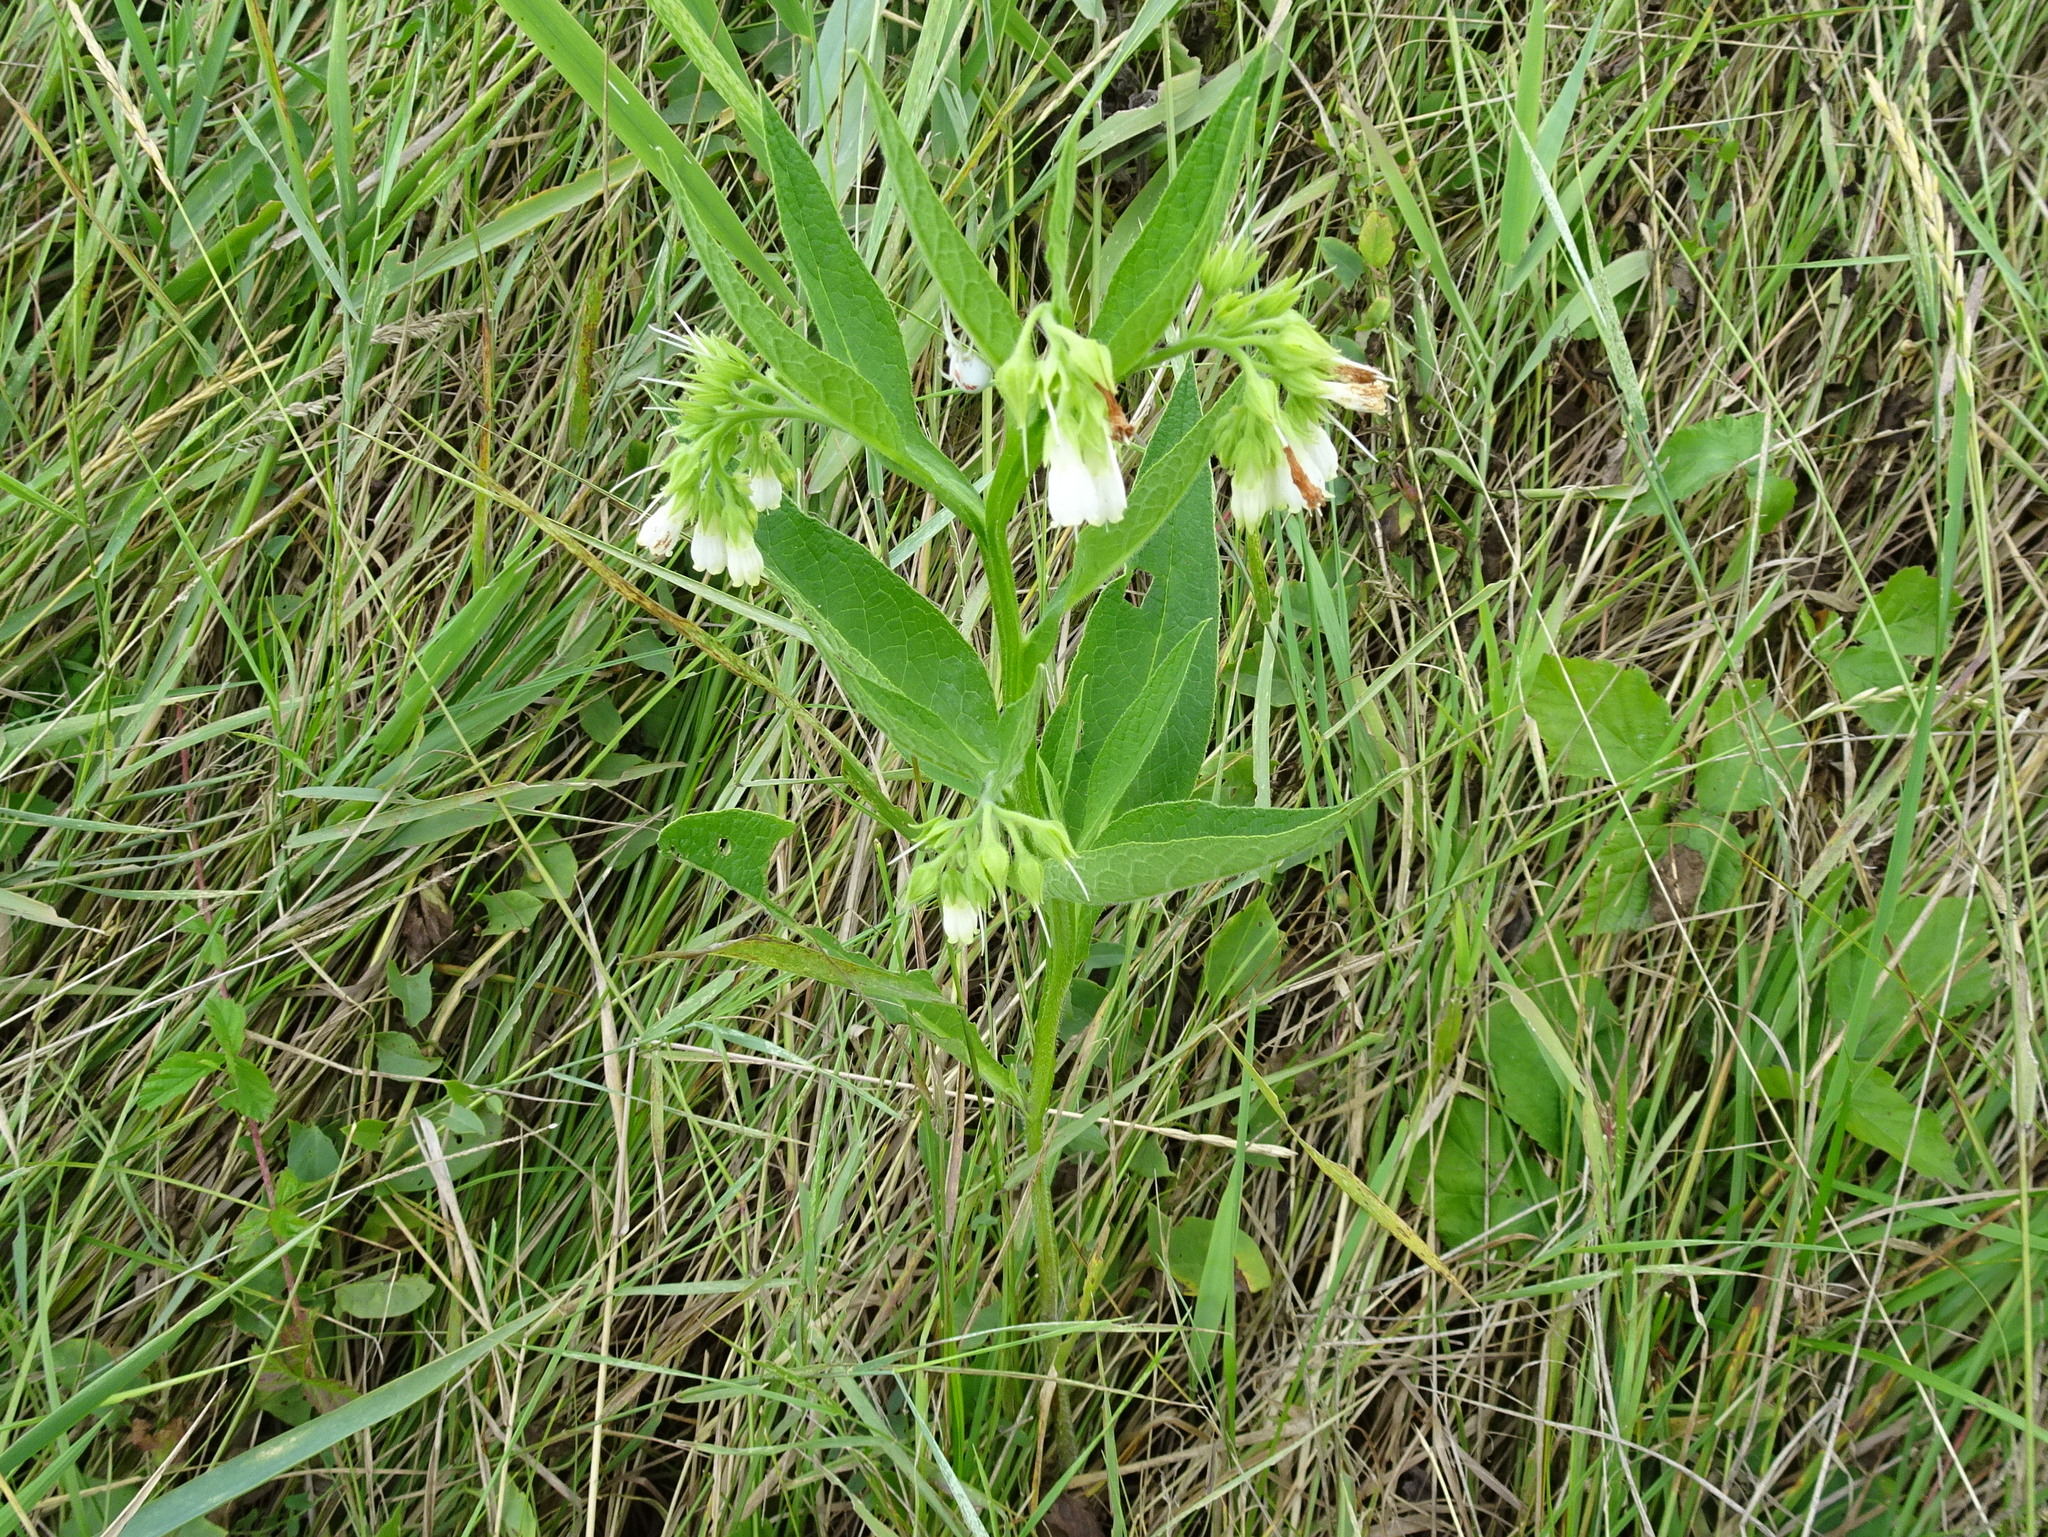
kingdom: Plantae
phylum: Tracheophyta
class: Magnoliopsida
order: Boraginales
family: Boraginaceae
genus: Symphytum
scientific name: Symphytum officinale
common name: Common comfrey
